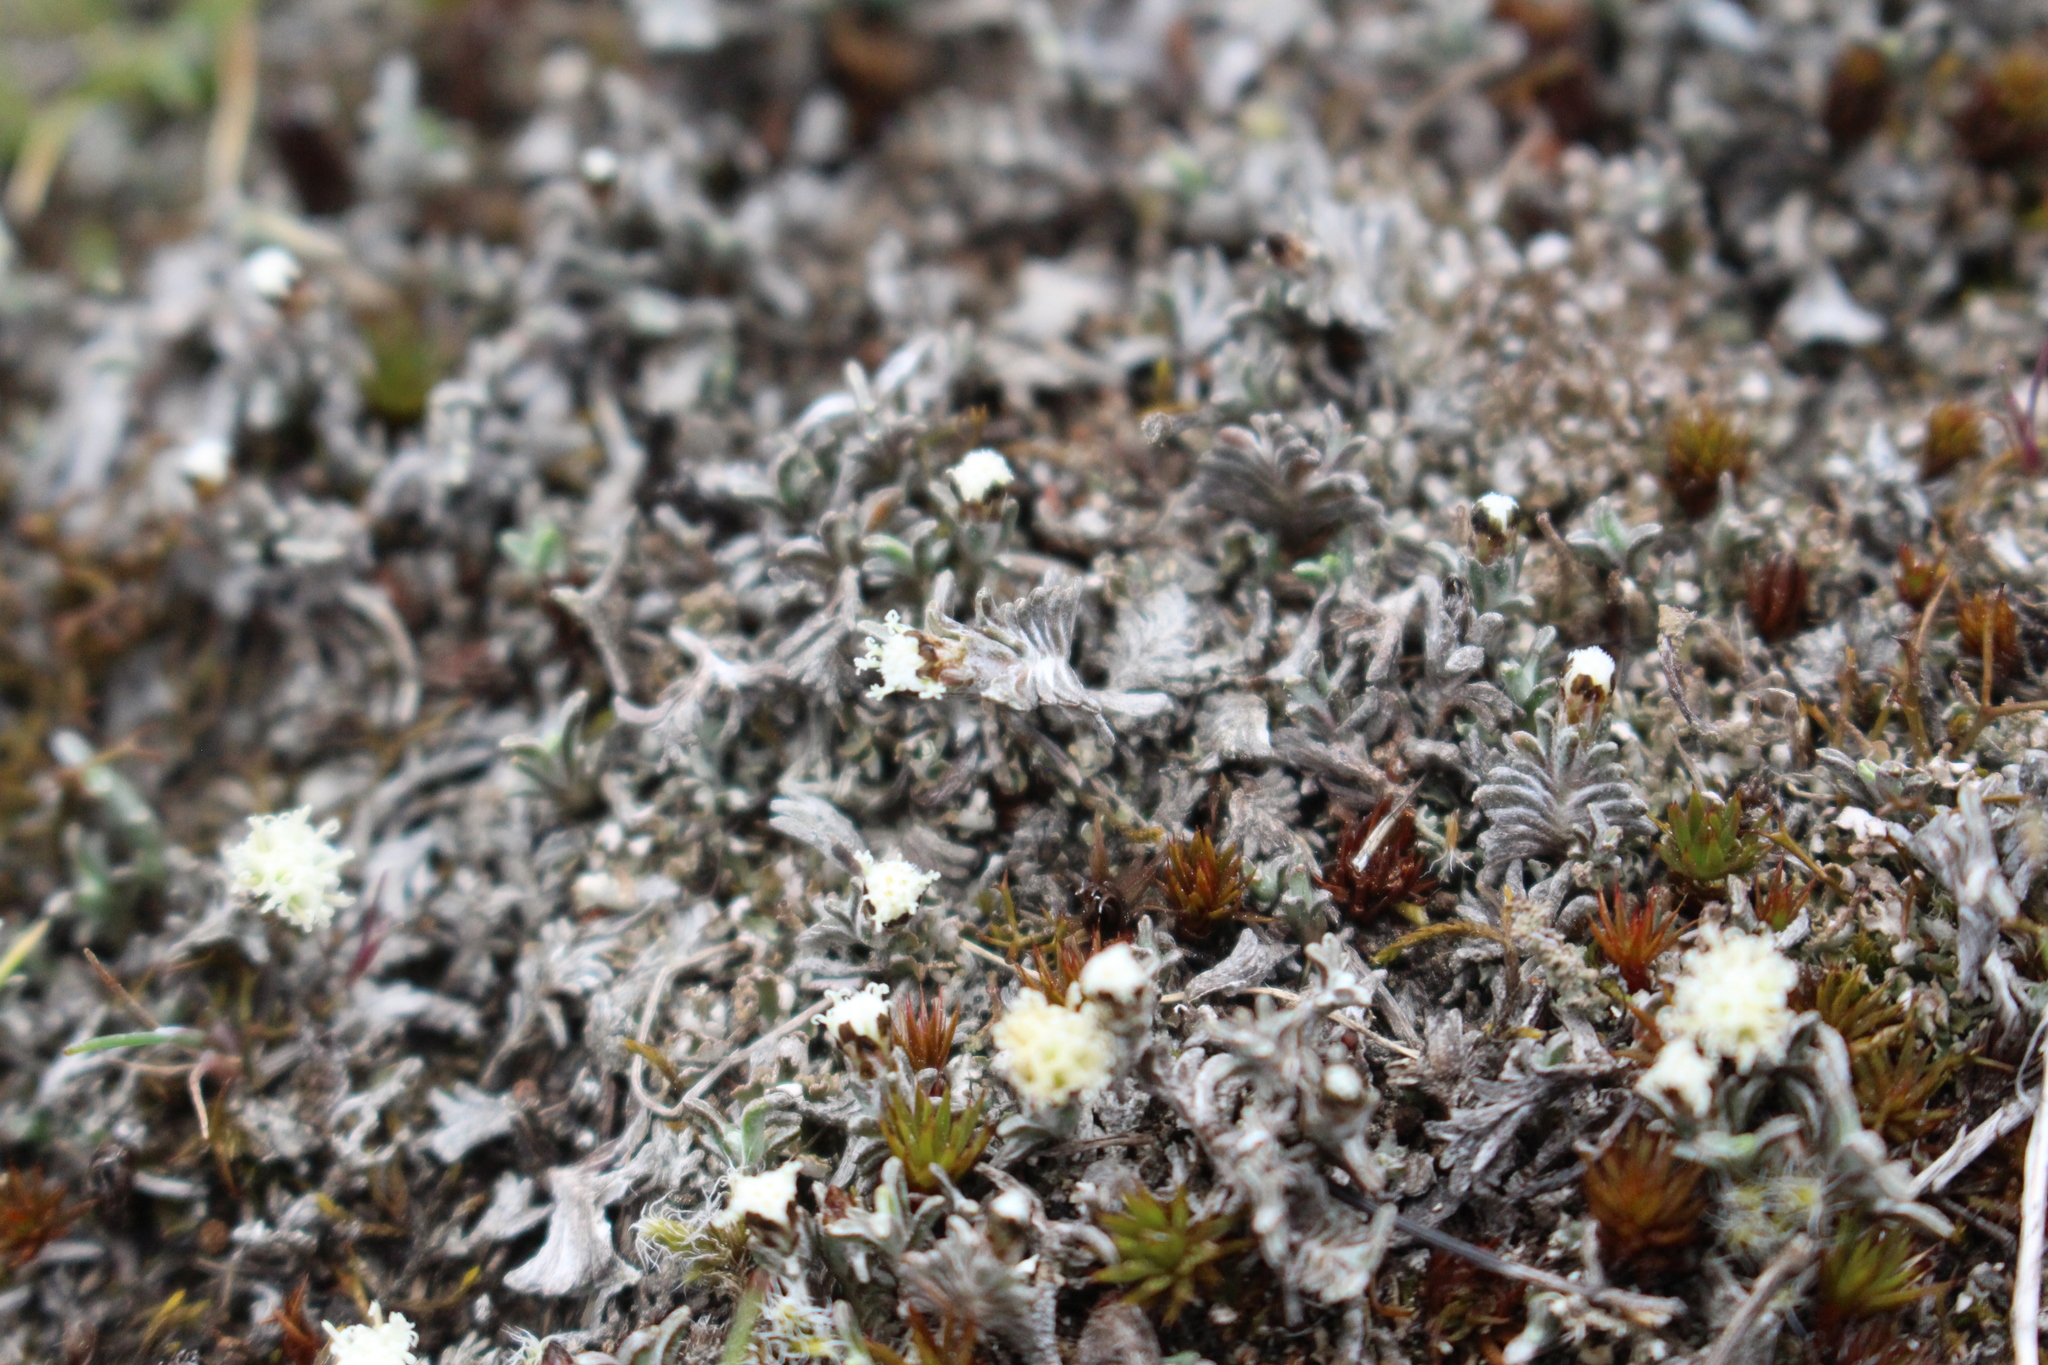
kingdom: Plantae
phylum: Tracheophyta
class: Magnoliopsida
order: Asterales
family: Asteraceae
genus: Raoulia
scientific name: Raoulia monroi
